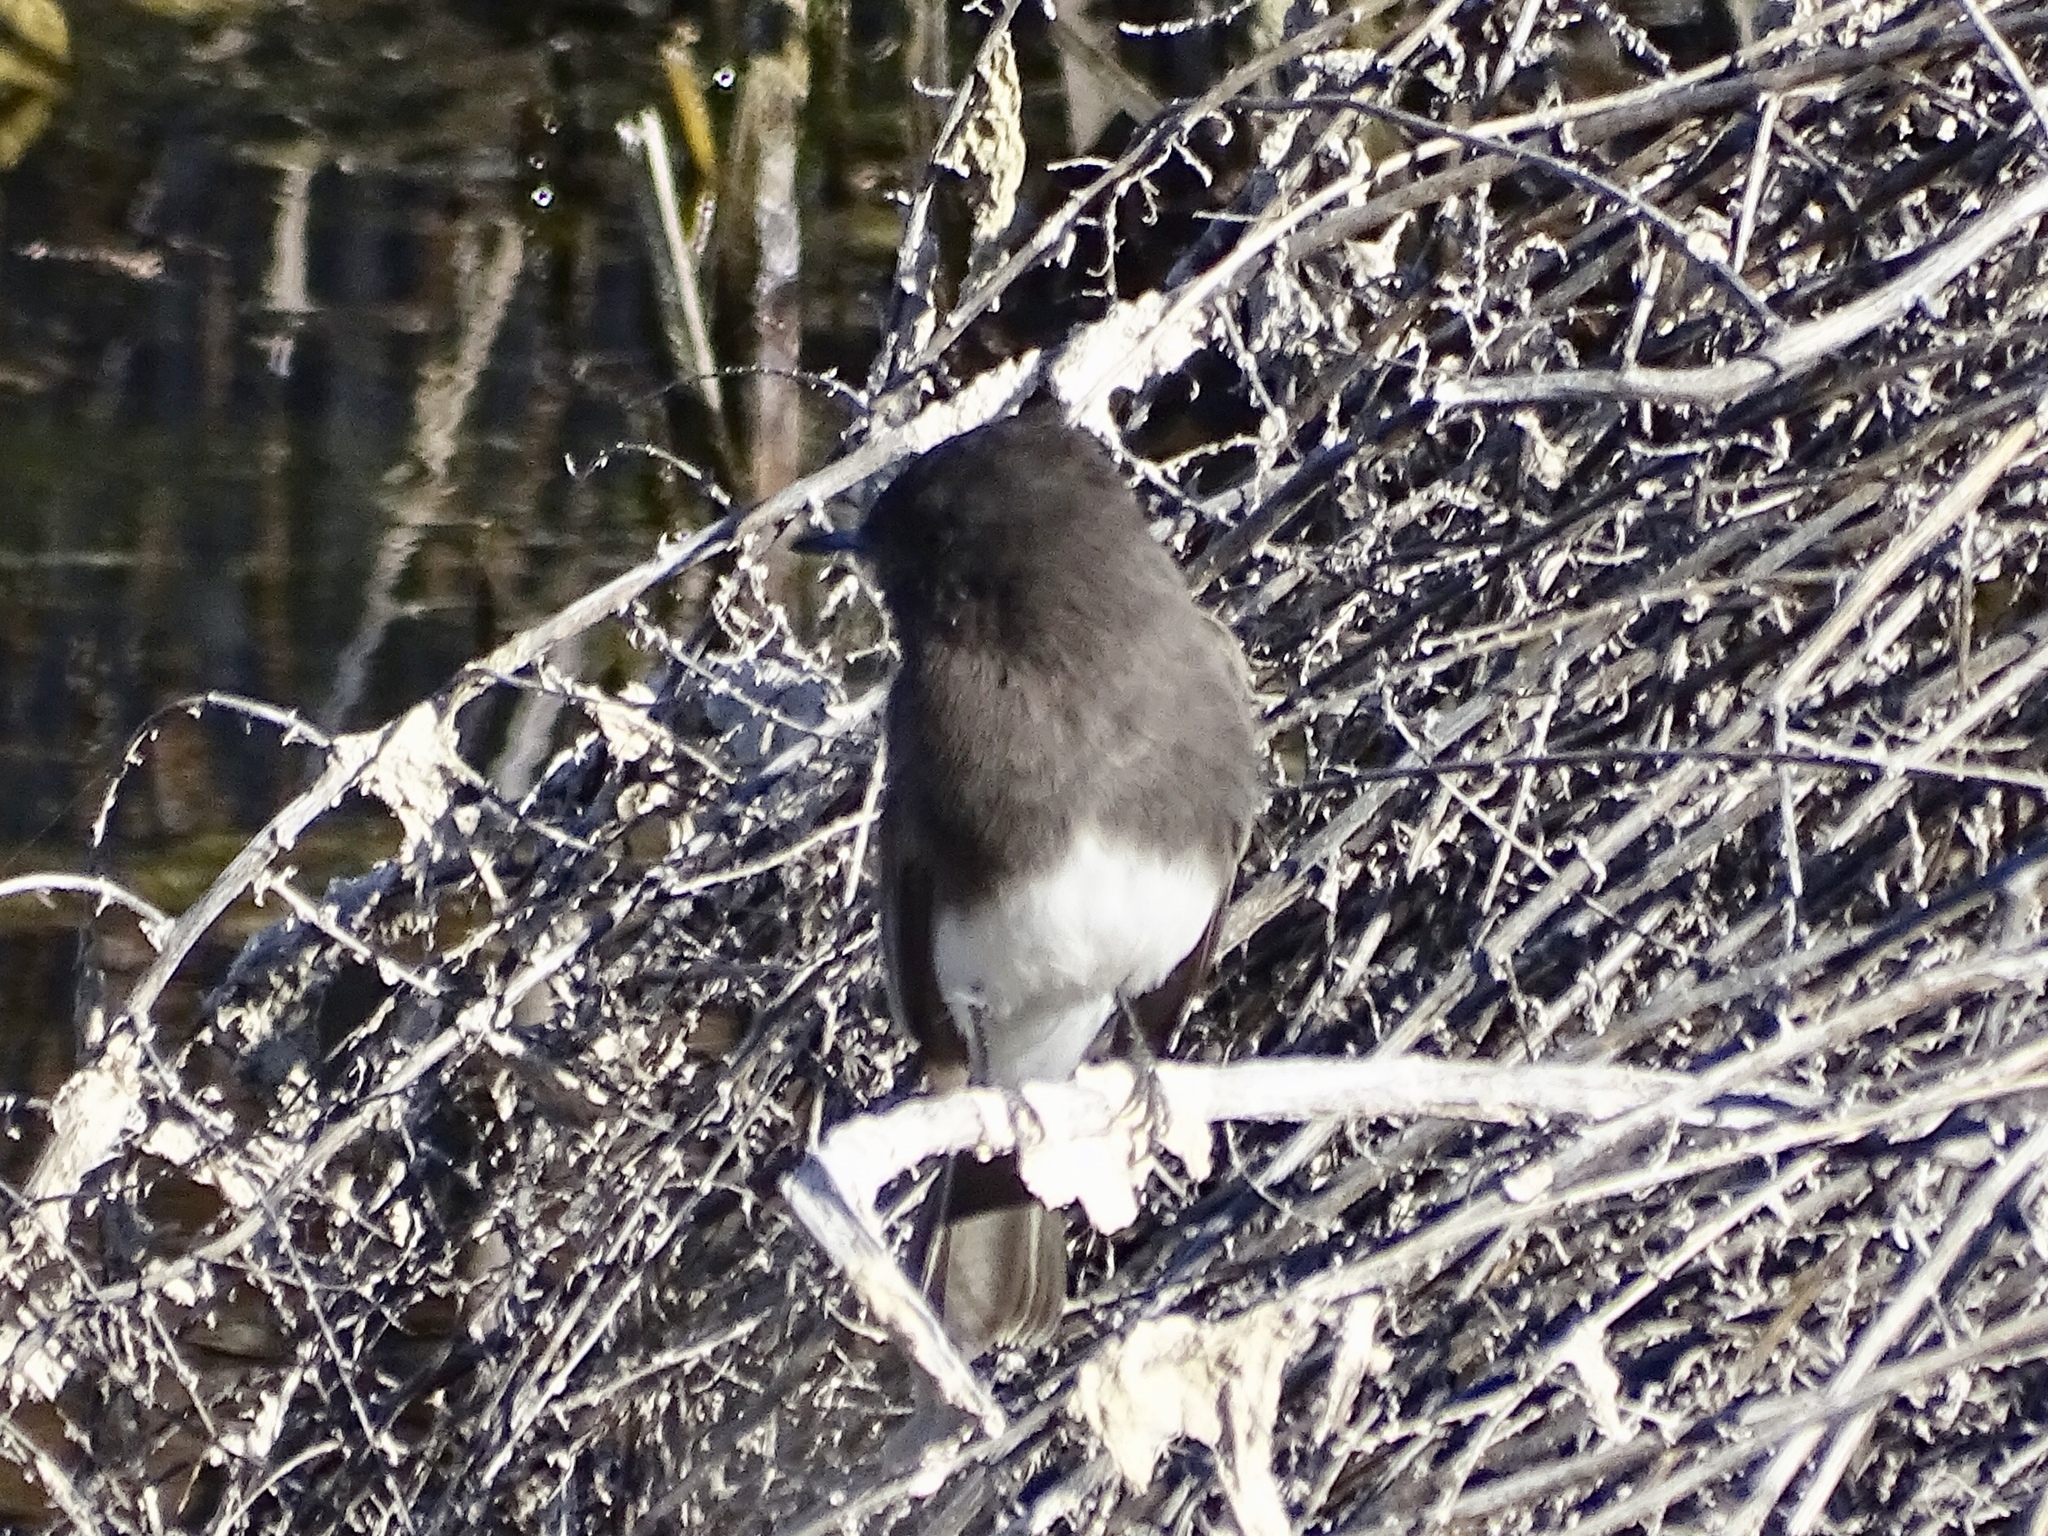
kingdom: Animalia
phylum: Chordata
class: Aves
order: Passeriformes
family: Tyrannidae
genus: Sayornis
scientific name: Sayornis nigricans
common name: Black phoebe
